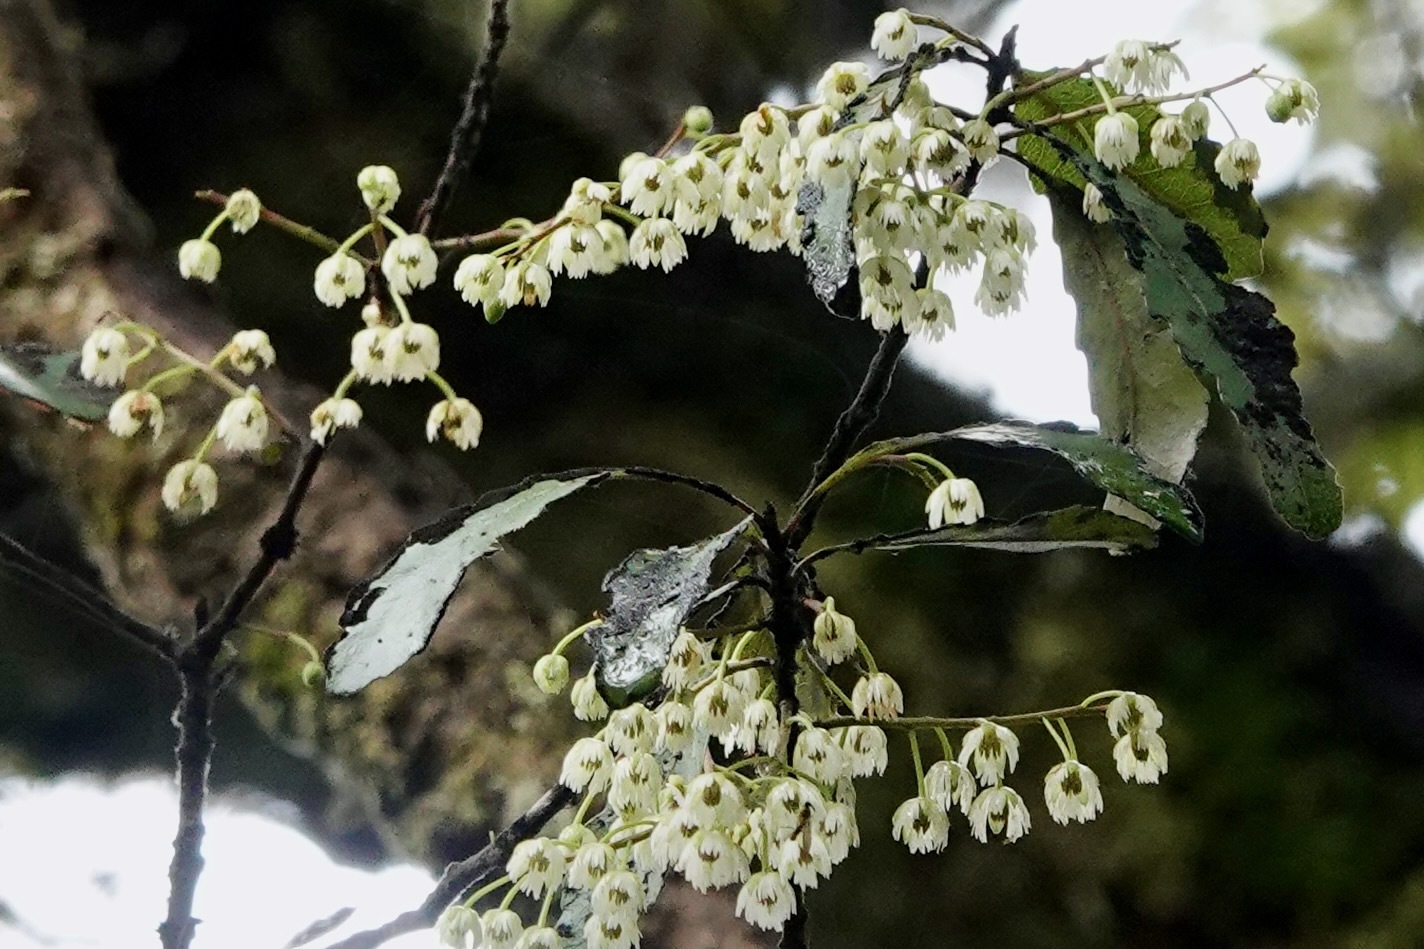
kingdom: Plantae
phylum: Tracheophyta
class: Magnoliopsida
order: Oxalidales
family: Elaeocarpaceae
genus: Elaeocarpus
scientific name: Elaeocarpus hookerianus
